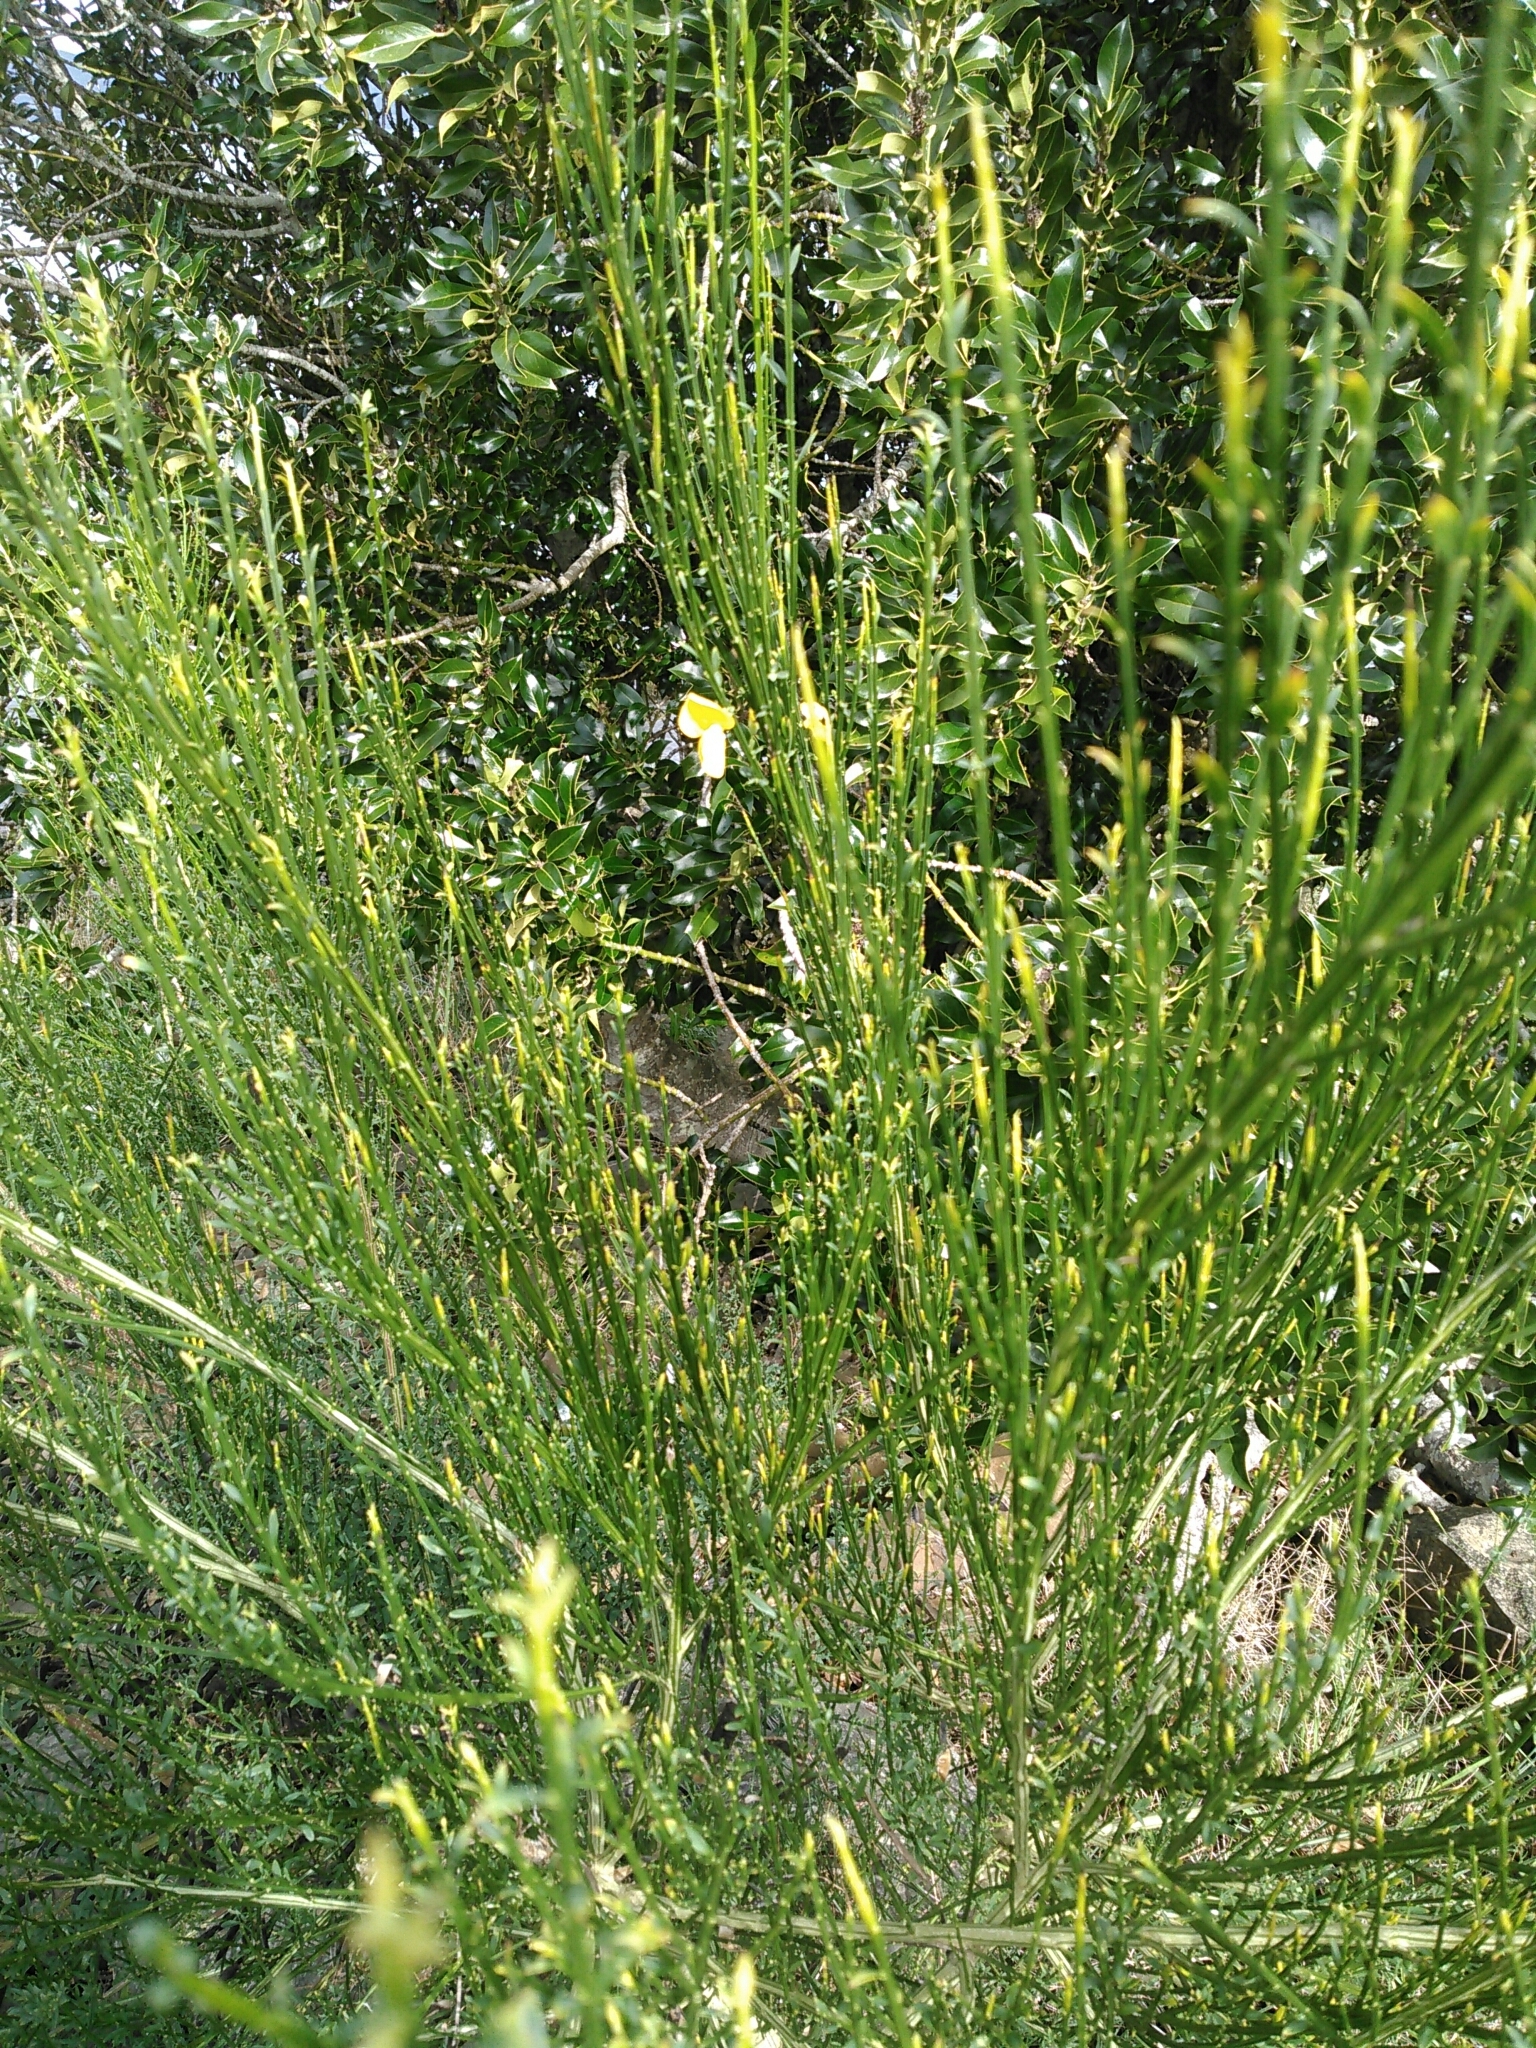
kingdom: Plantae
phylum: Tracheophyta
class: Magnoliopsida
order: Fabales
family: Fabaceae
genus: Cytisus
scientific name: Cytisus scoparius
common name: Scotch broom
